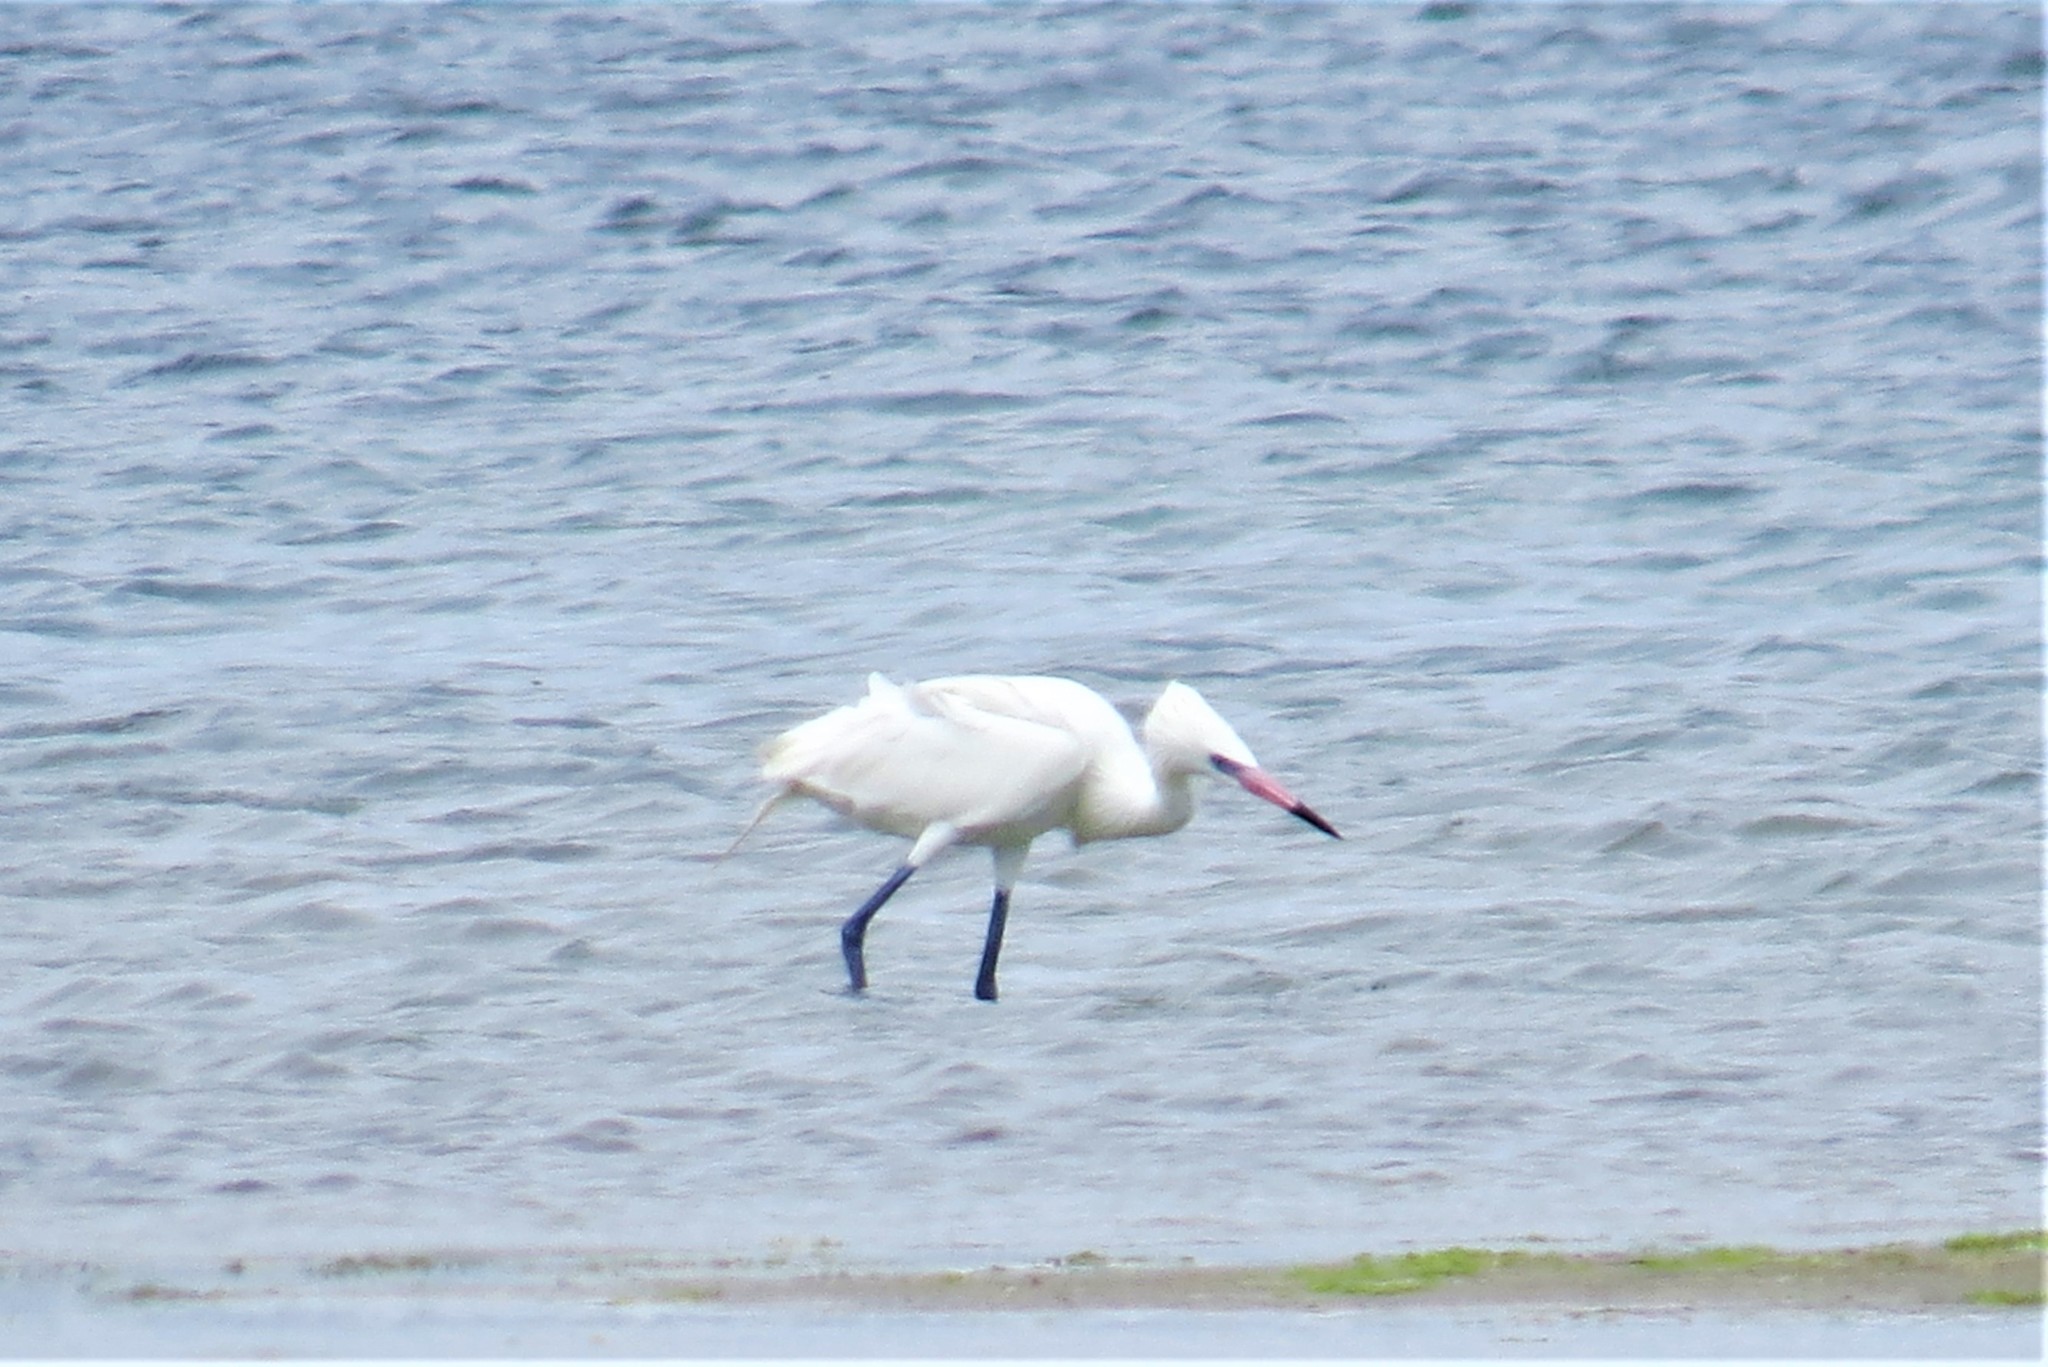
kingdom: Animalia
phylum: Chordata
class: Aves
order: Pelecaniformes
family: Ardeidae
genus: Egretta
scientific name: Egretta rufescens
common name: Reddish egret
